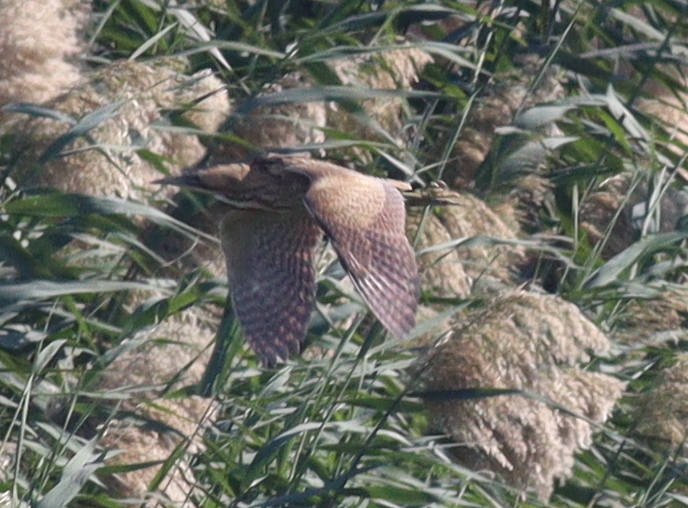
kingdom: Animalia
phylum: Chordata
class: Aves
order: Pelecaniformes
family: Ardeidae
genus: Botaurus
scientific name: Botaurus stellaris
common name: Eurasian bittern
